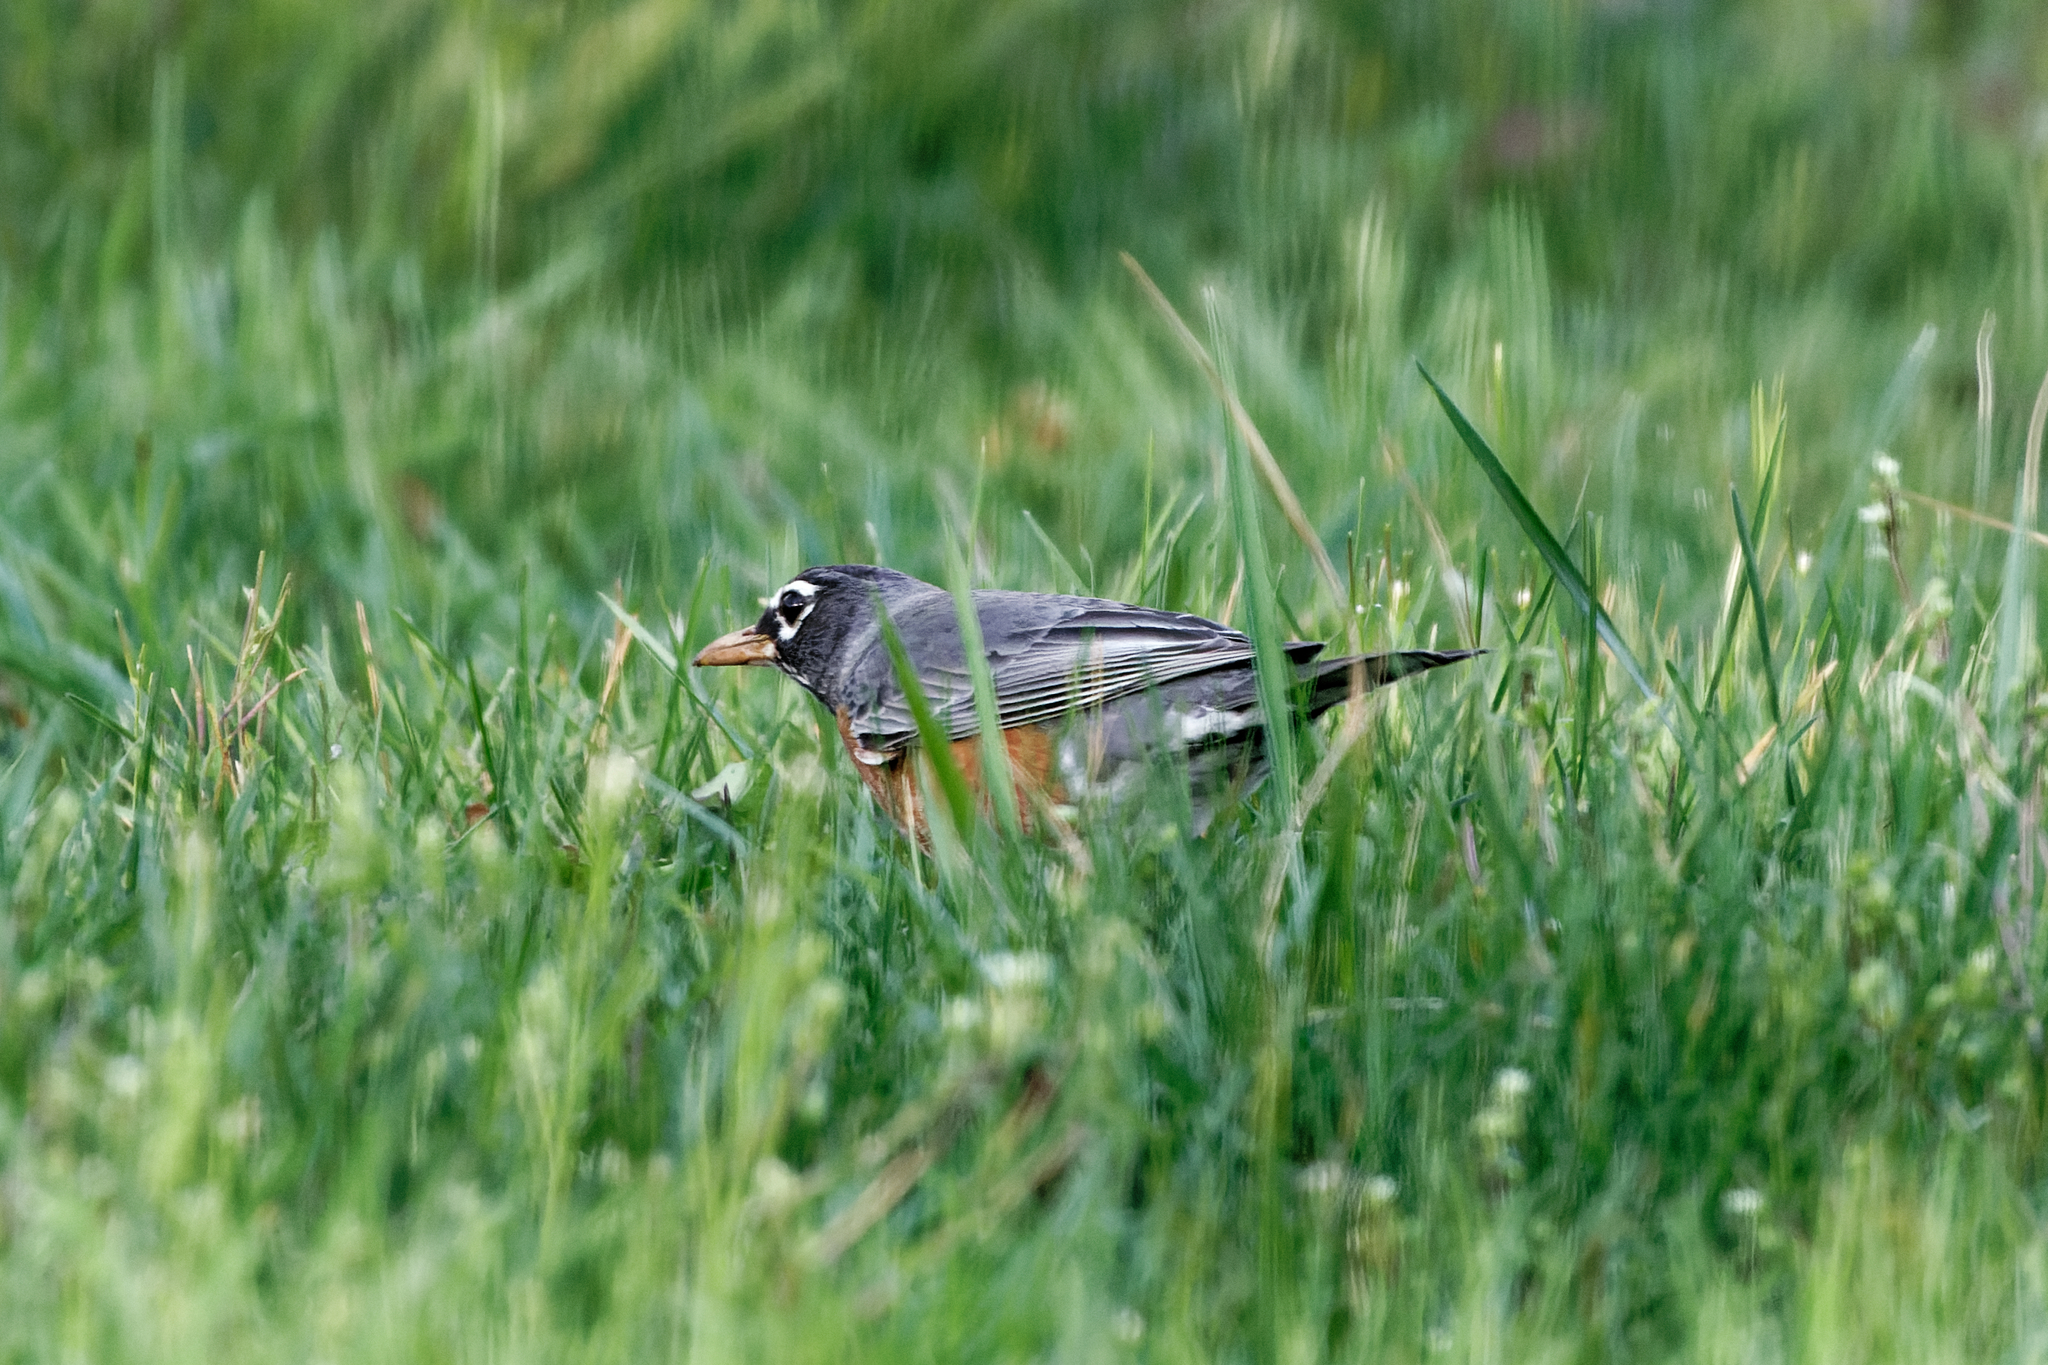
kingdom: Animalia
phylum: Chordata
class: Aves
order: Passeriformes
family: Turdidae
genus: Turdus
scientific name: Turdus migratorius
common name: American robin
